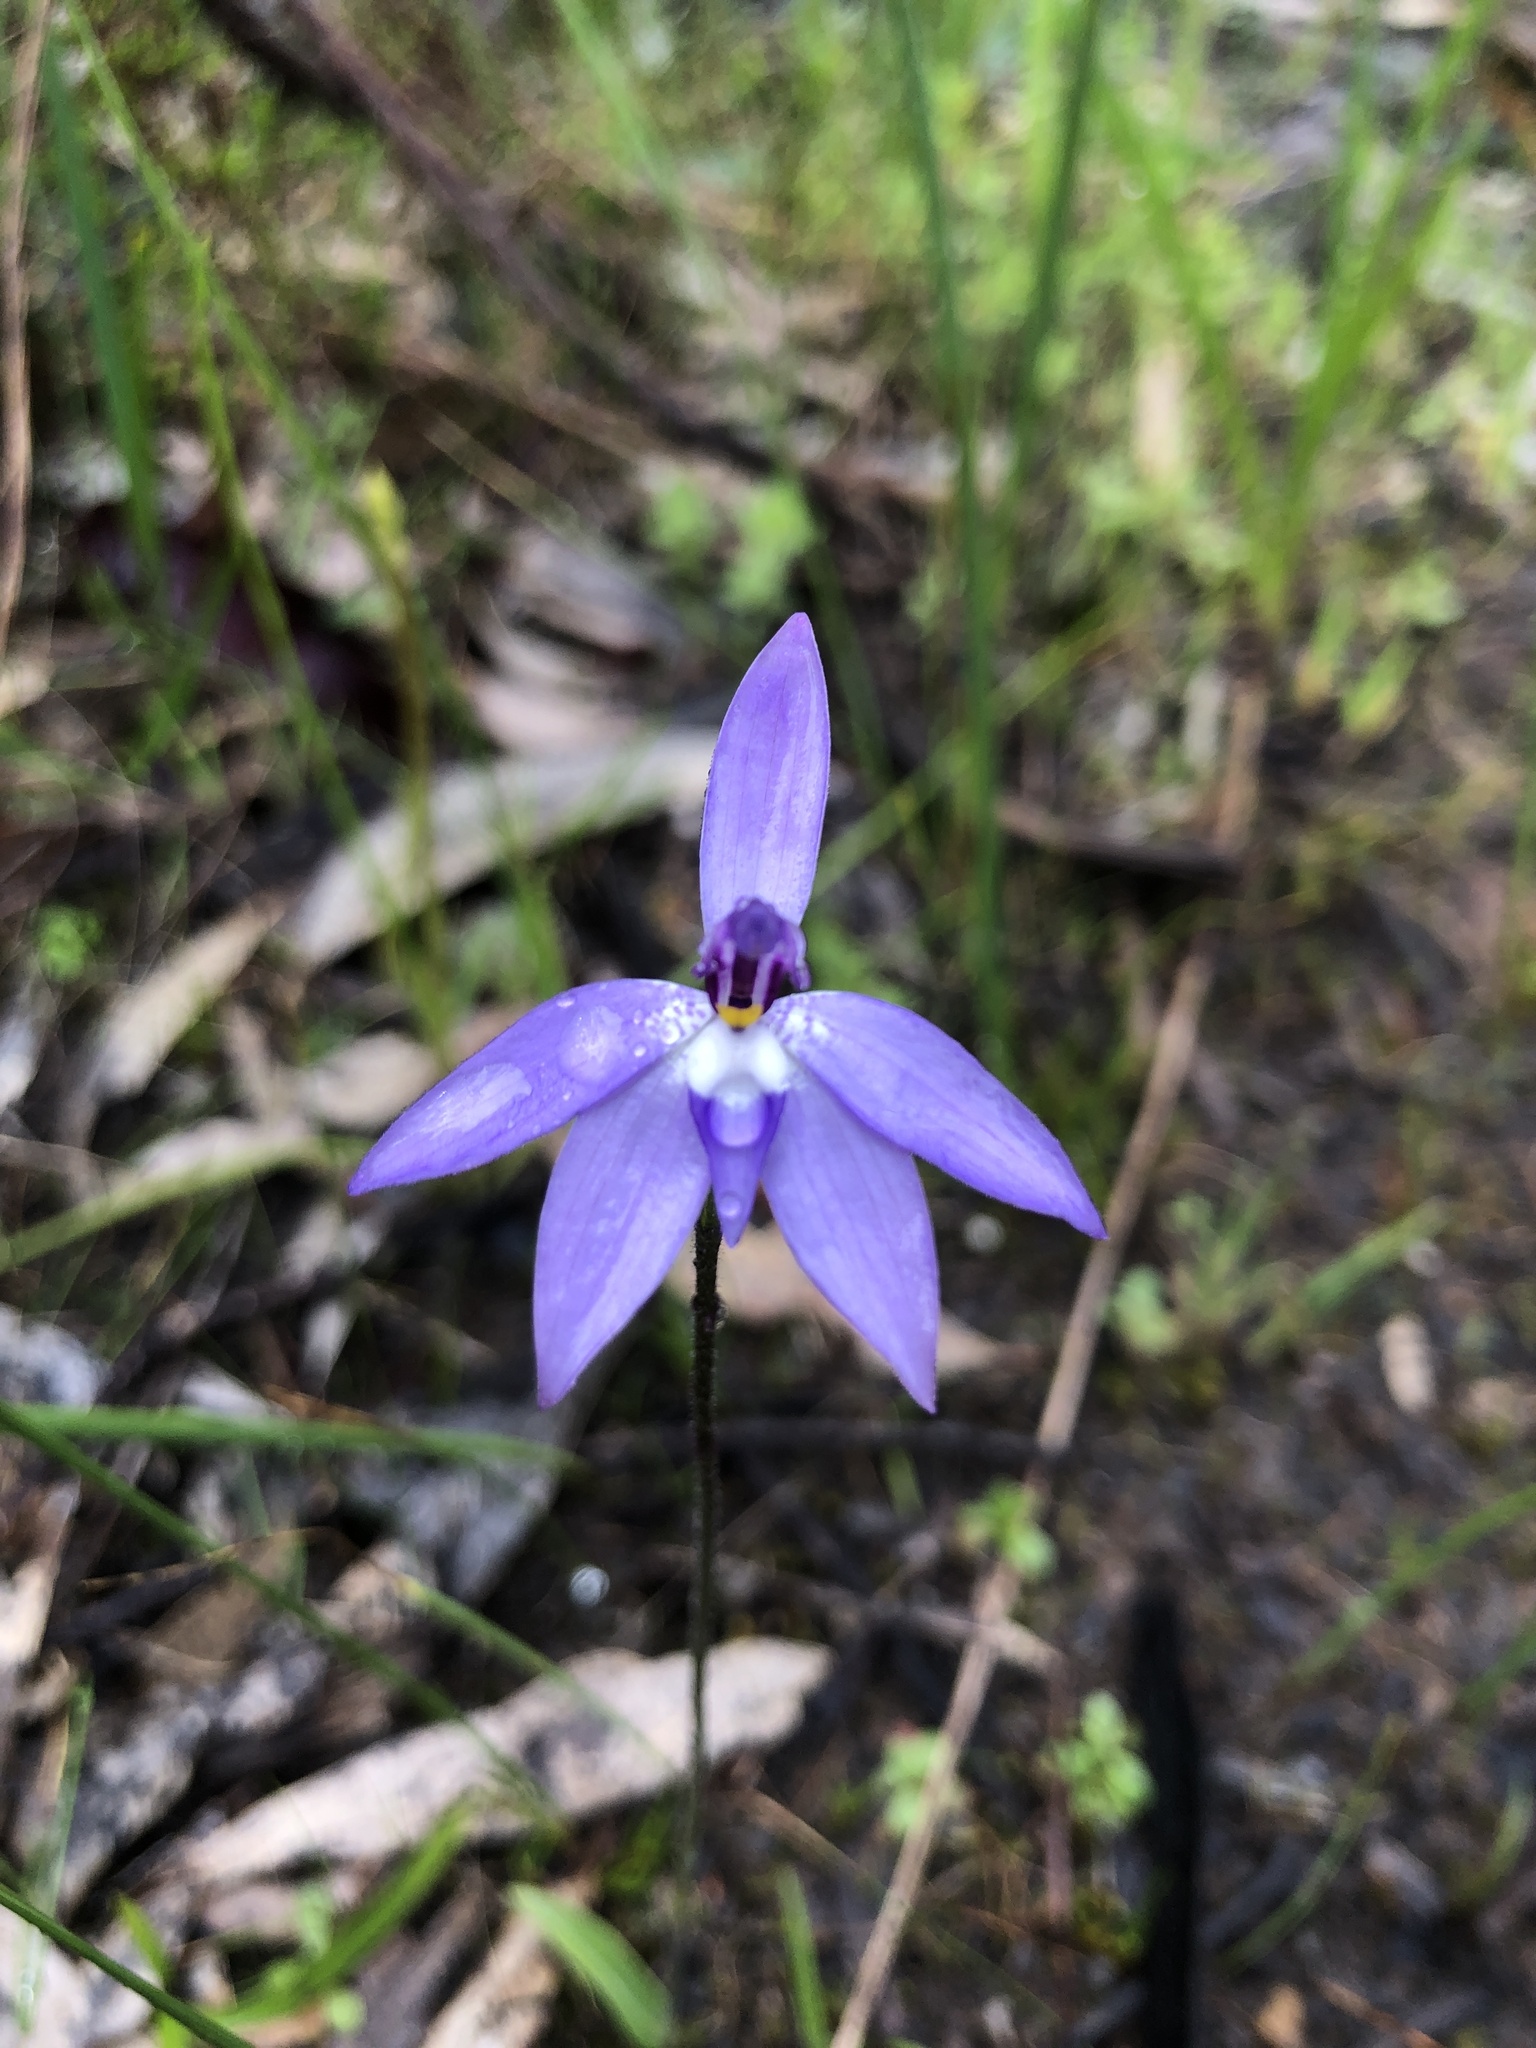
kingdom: Plantae
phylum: Tracheophyta
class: Liliopsida
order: Asparagales
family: Orchidaceae
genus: Caladenia
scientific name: Caladenia major
